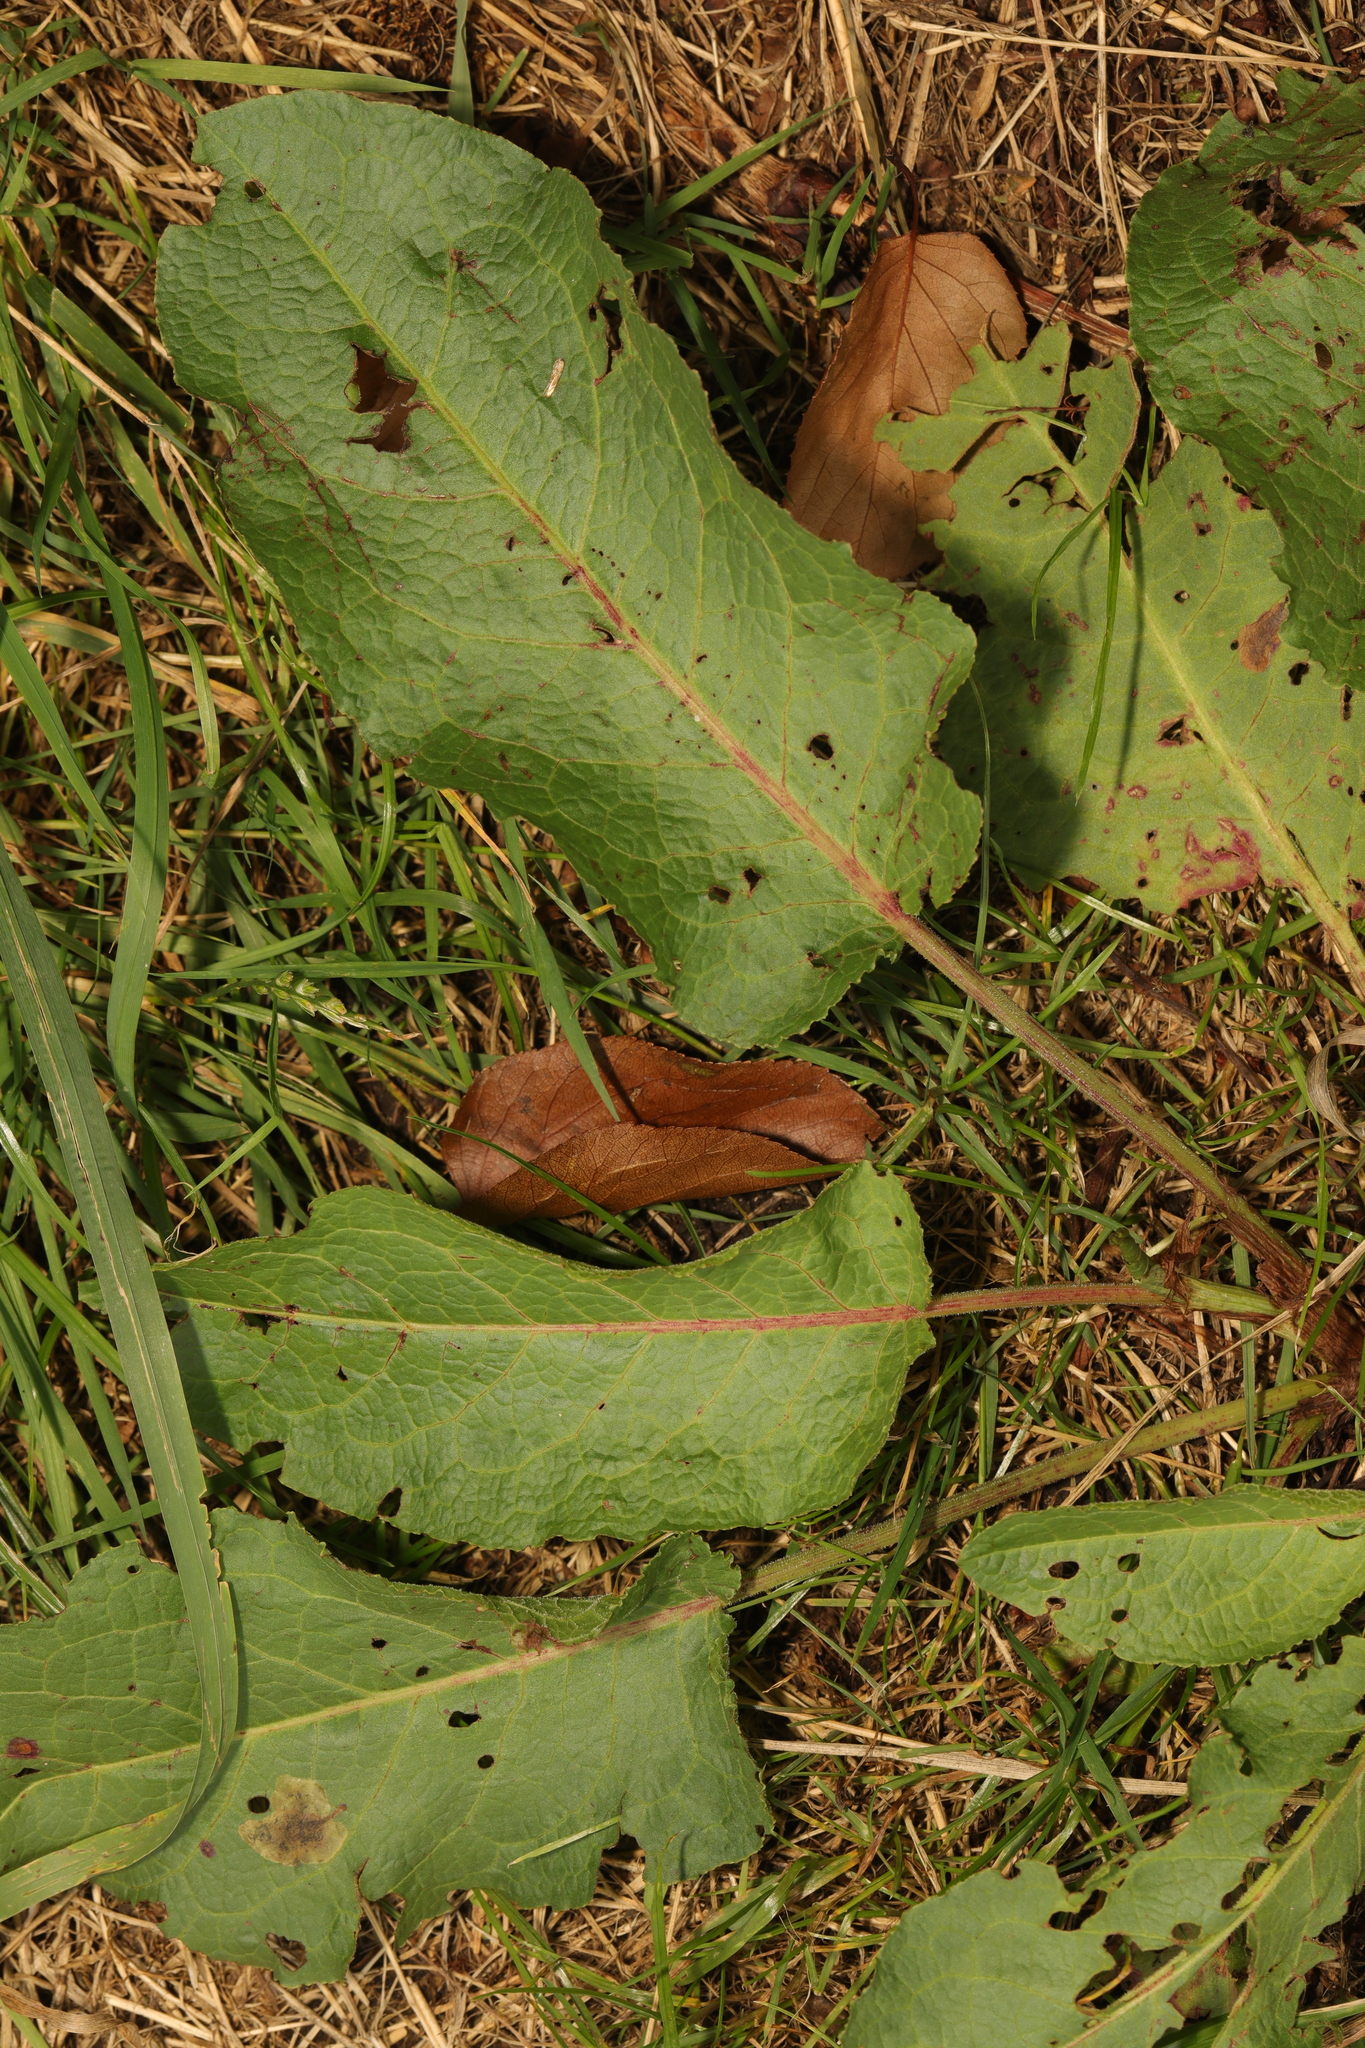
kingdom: Plantae
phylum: Tracheophyta
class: Magnoliopsida
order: Caryophyllales
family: Polygonaceae
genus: Rumex
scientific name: Rumex obtusifolius
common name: Bitter dock
